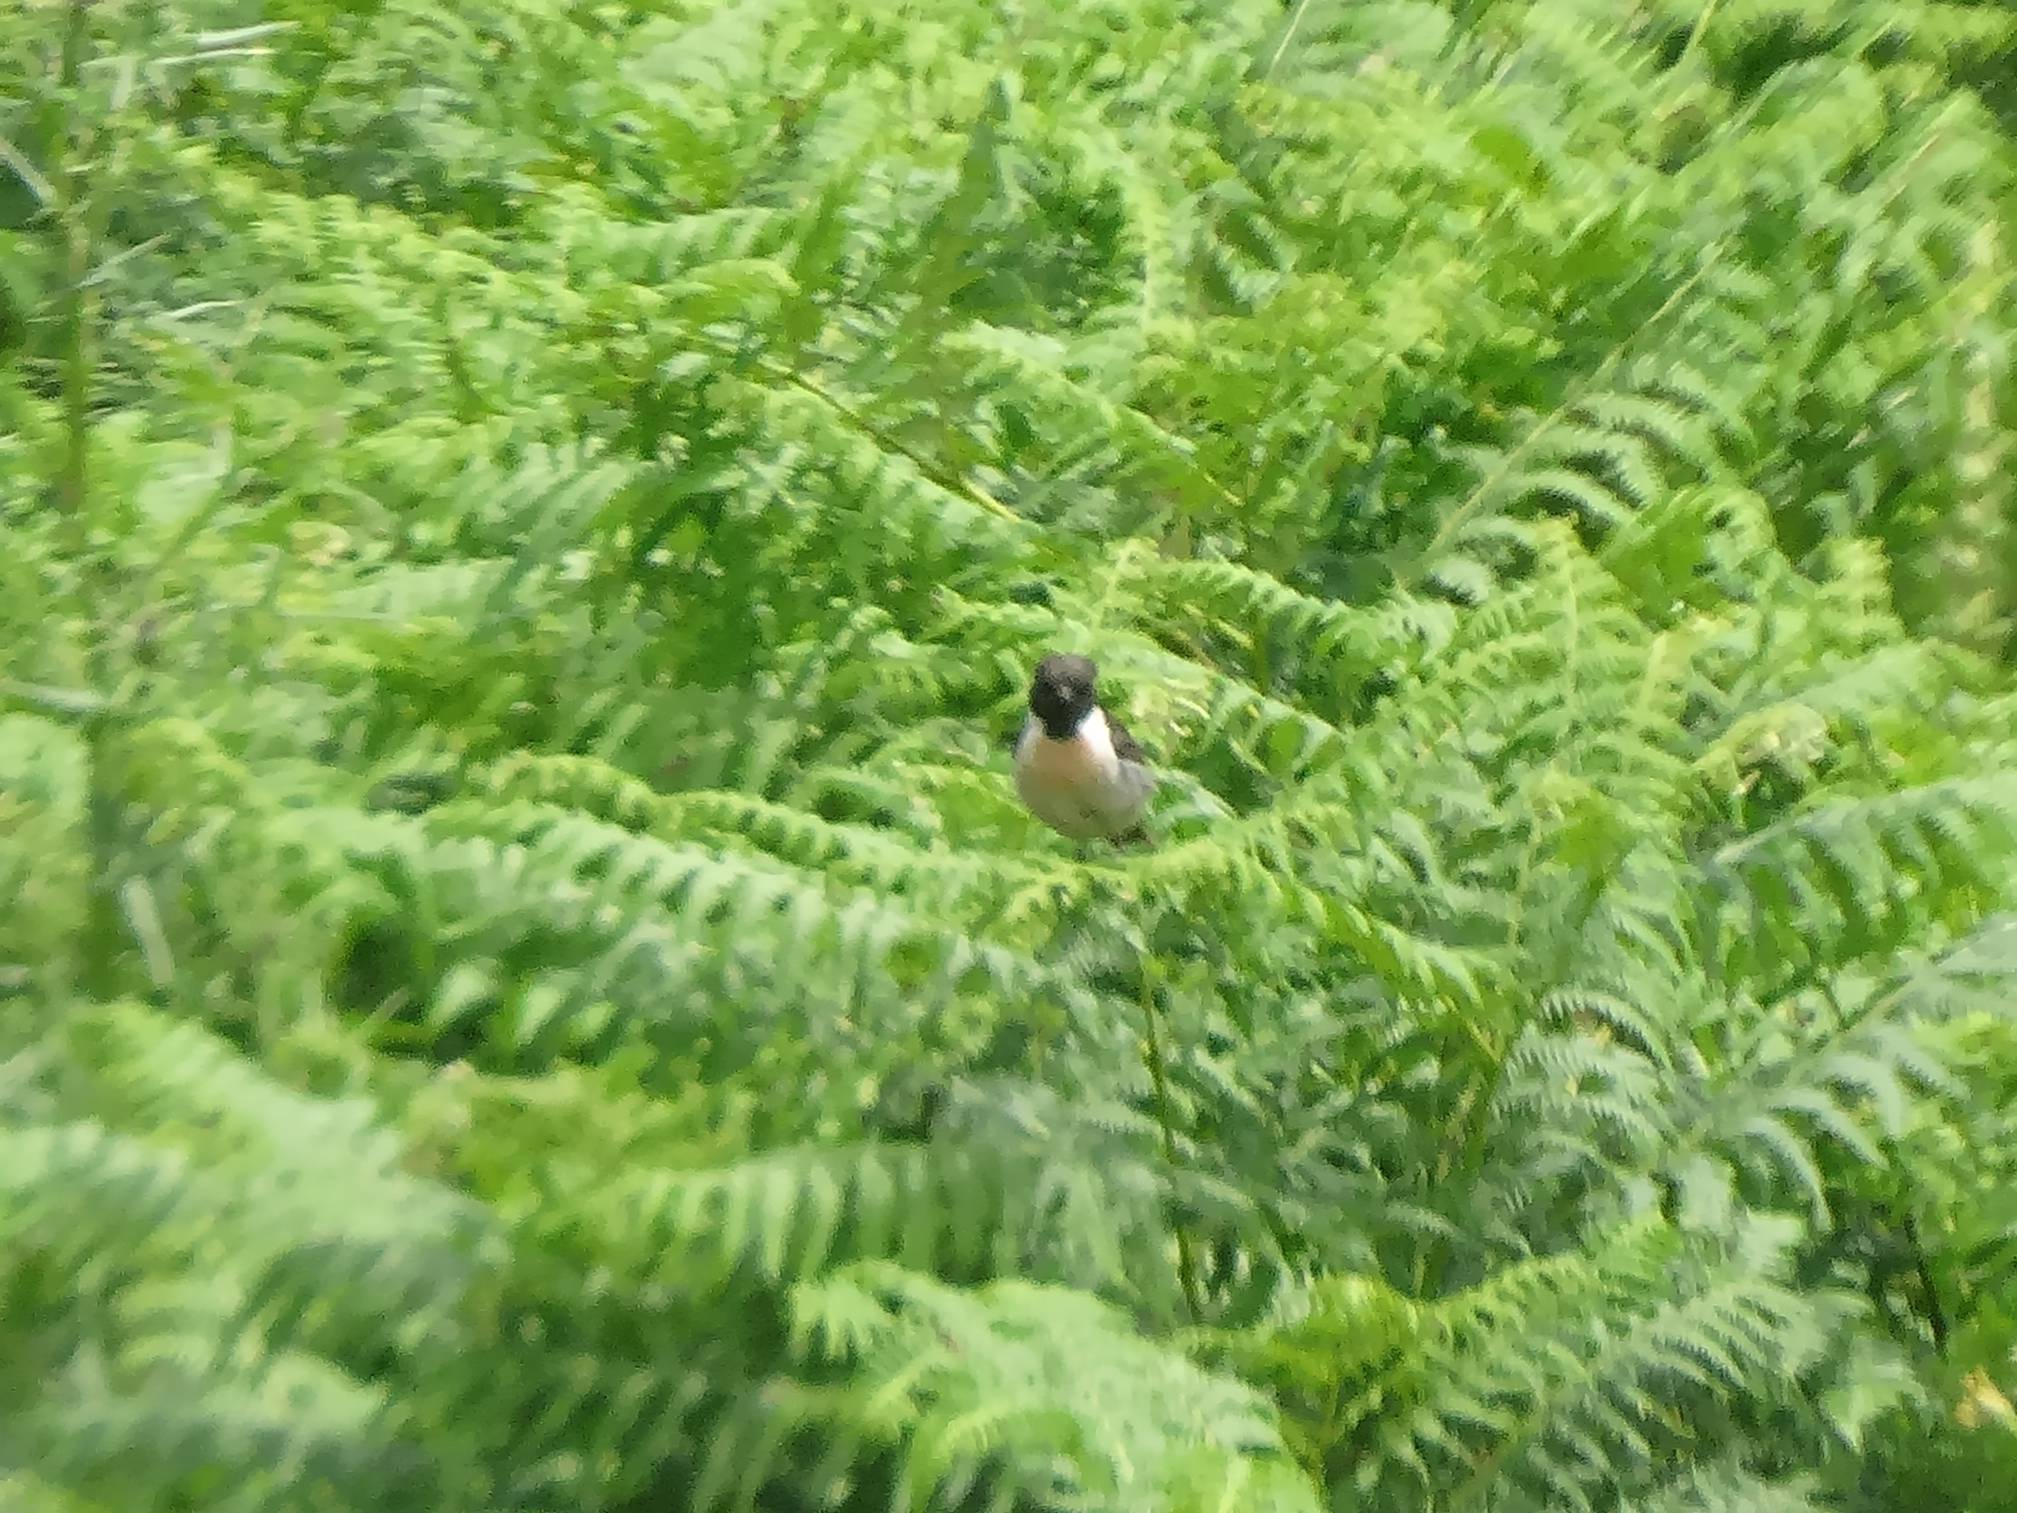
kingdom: Animalia
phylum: Chordata
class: Aves
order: Passeriformes
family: Muscicapidae
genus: Saxicola
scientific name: Saxicola rubicola
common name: European stonechat
